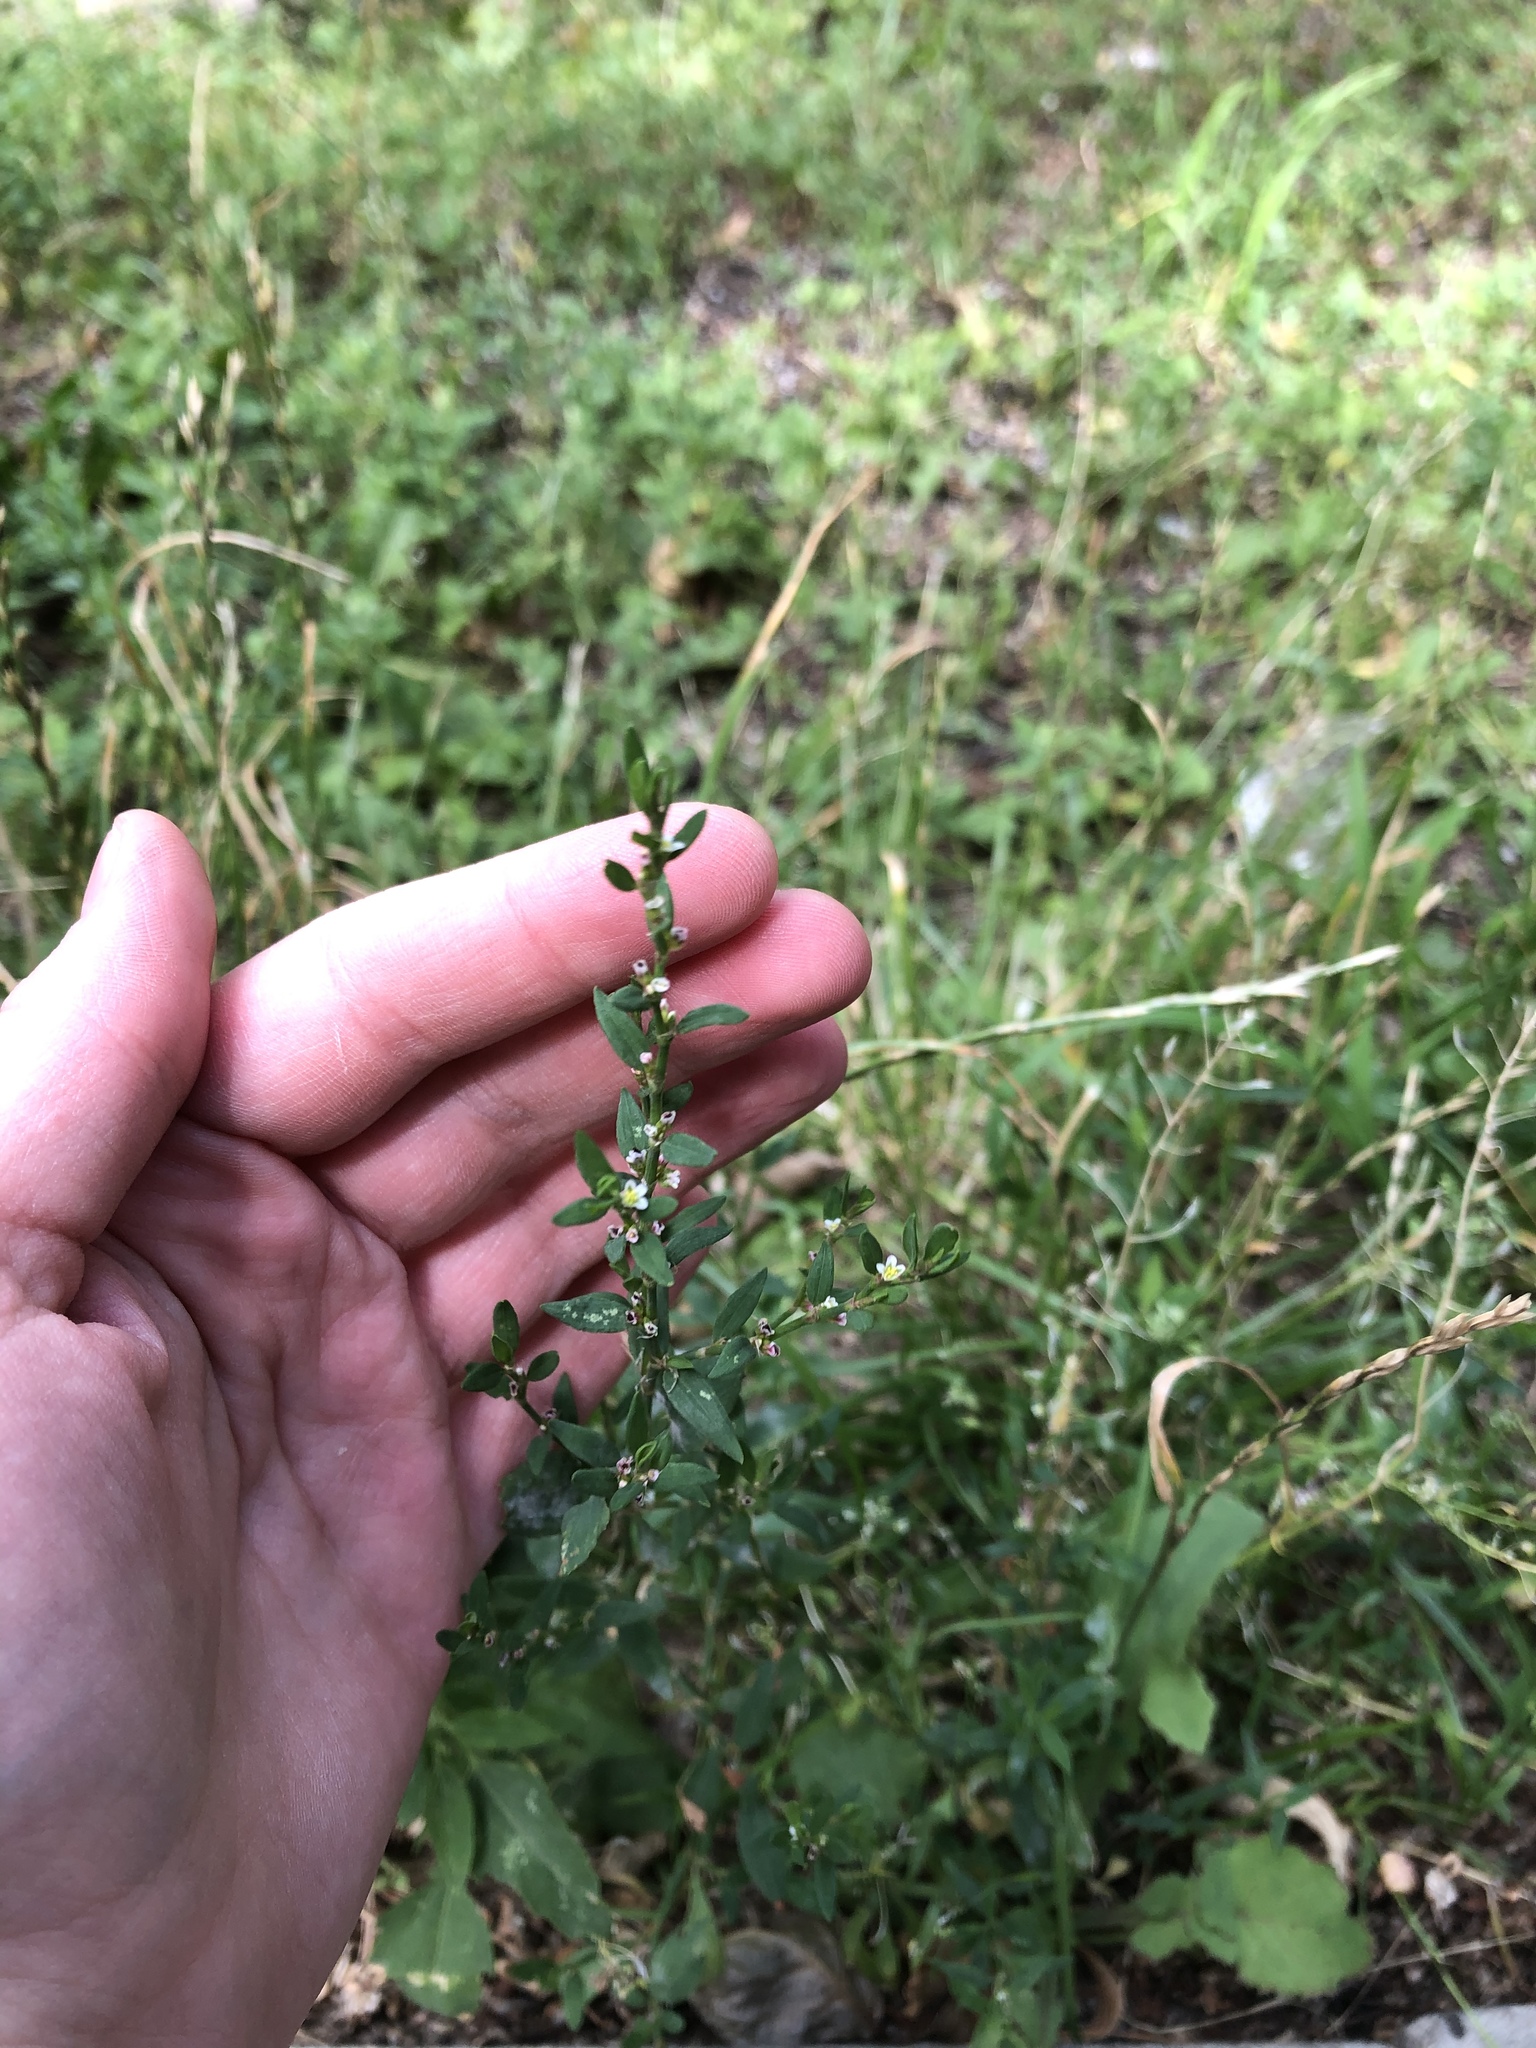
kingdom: Plantae
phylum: Tracheophyta
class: Magnoliopsida
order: Caryophyllales
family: Polygonaceae
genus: Polygonum
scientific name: Polygonum aviculare
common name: Prostrate knotweed
